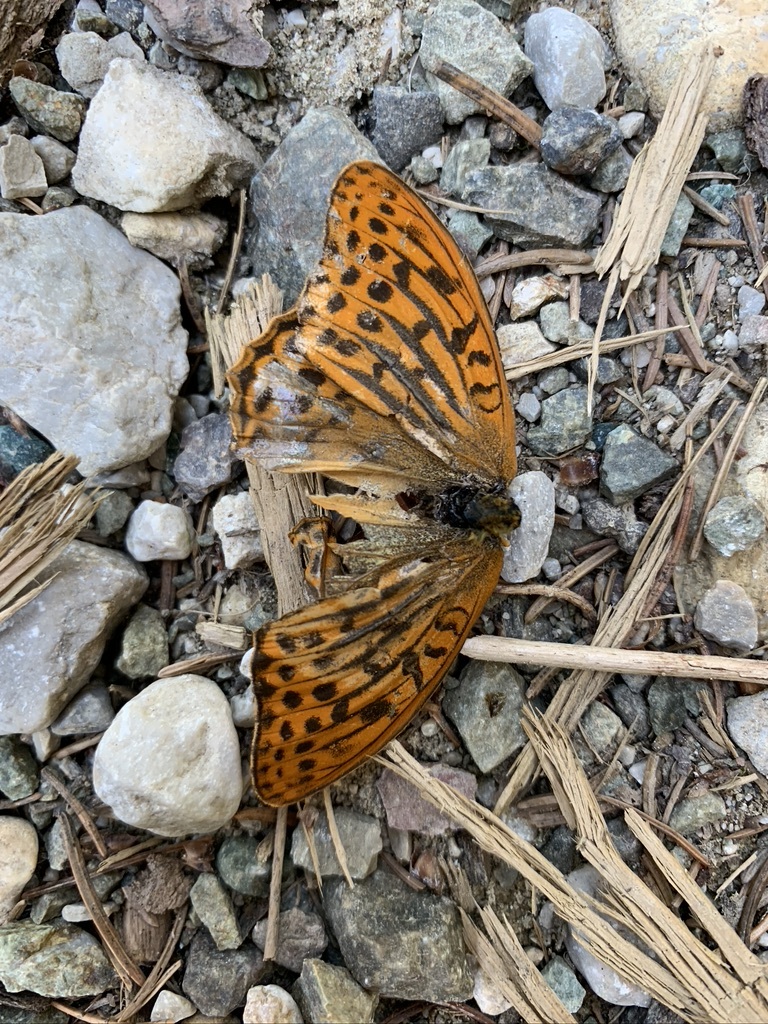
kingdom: Animalia
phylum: Arthropoda
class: Insecta
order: Lepidoptera
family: Nymphalidae
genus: Argynnis
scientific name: Argynnis paphia
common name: Silver-washed fritillary
